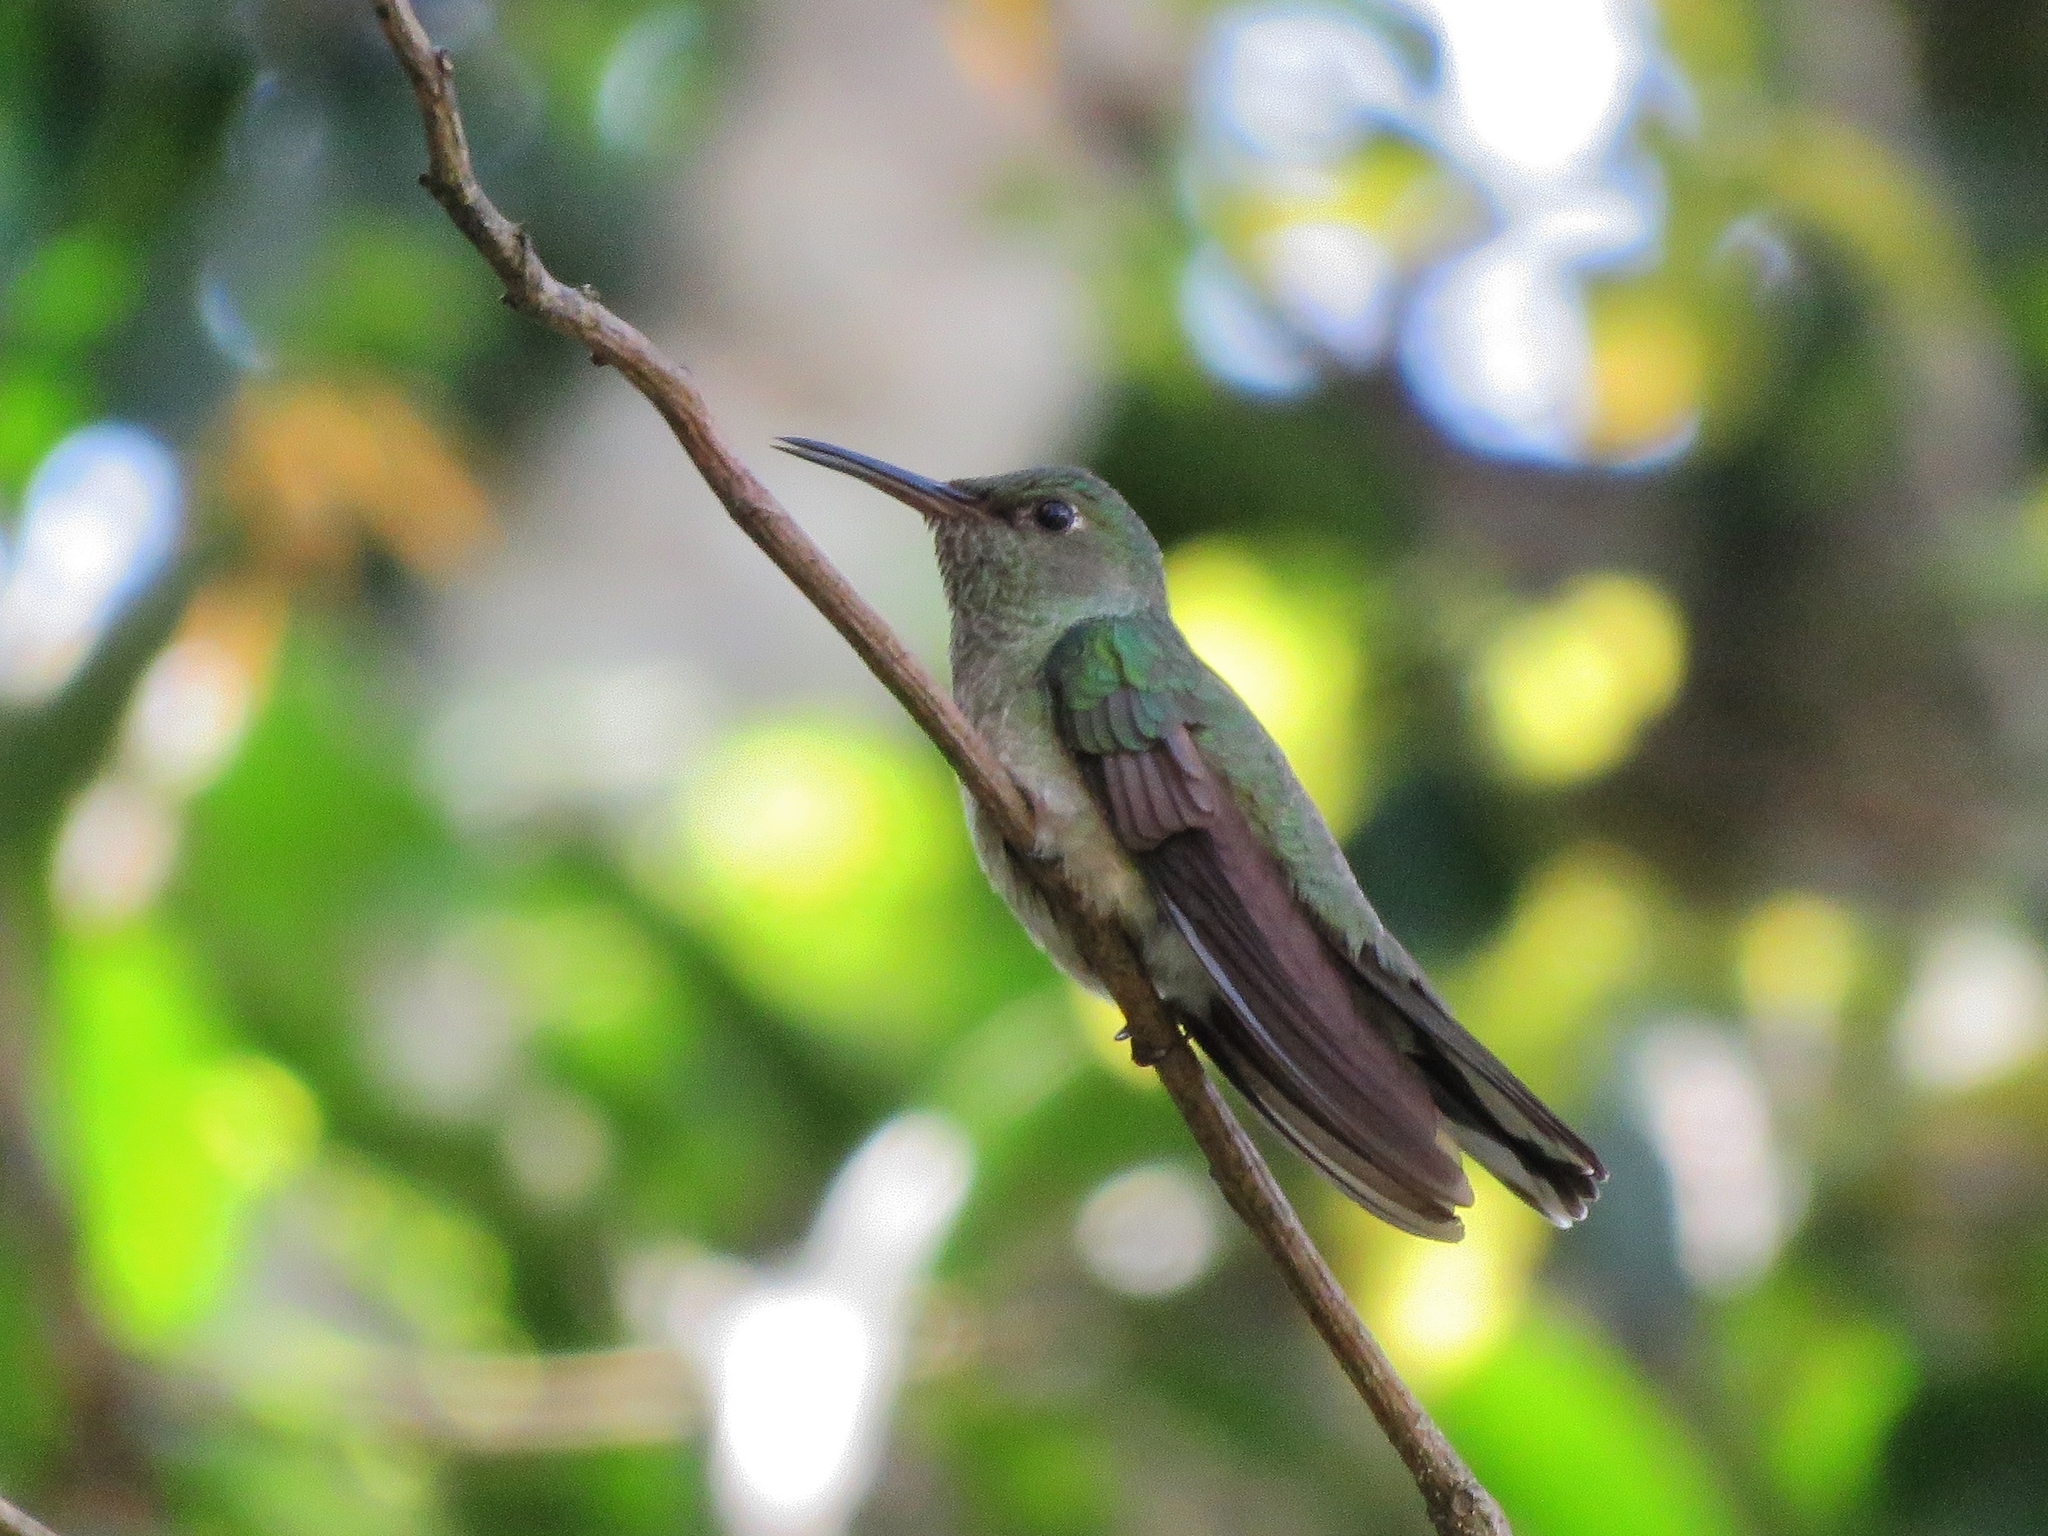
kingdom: Animalia
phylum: Chordata
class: Aves
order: Apodiformes
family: Trochilidae
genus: Phaeochroa
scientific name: Phaeochroa cuvierii
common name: Scaly-breasted hummingbird
